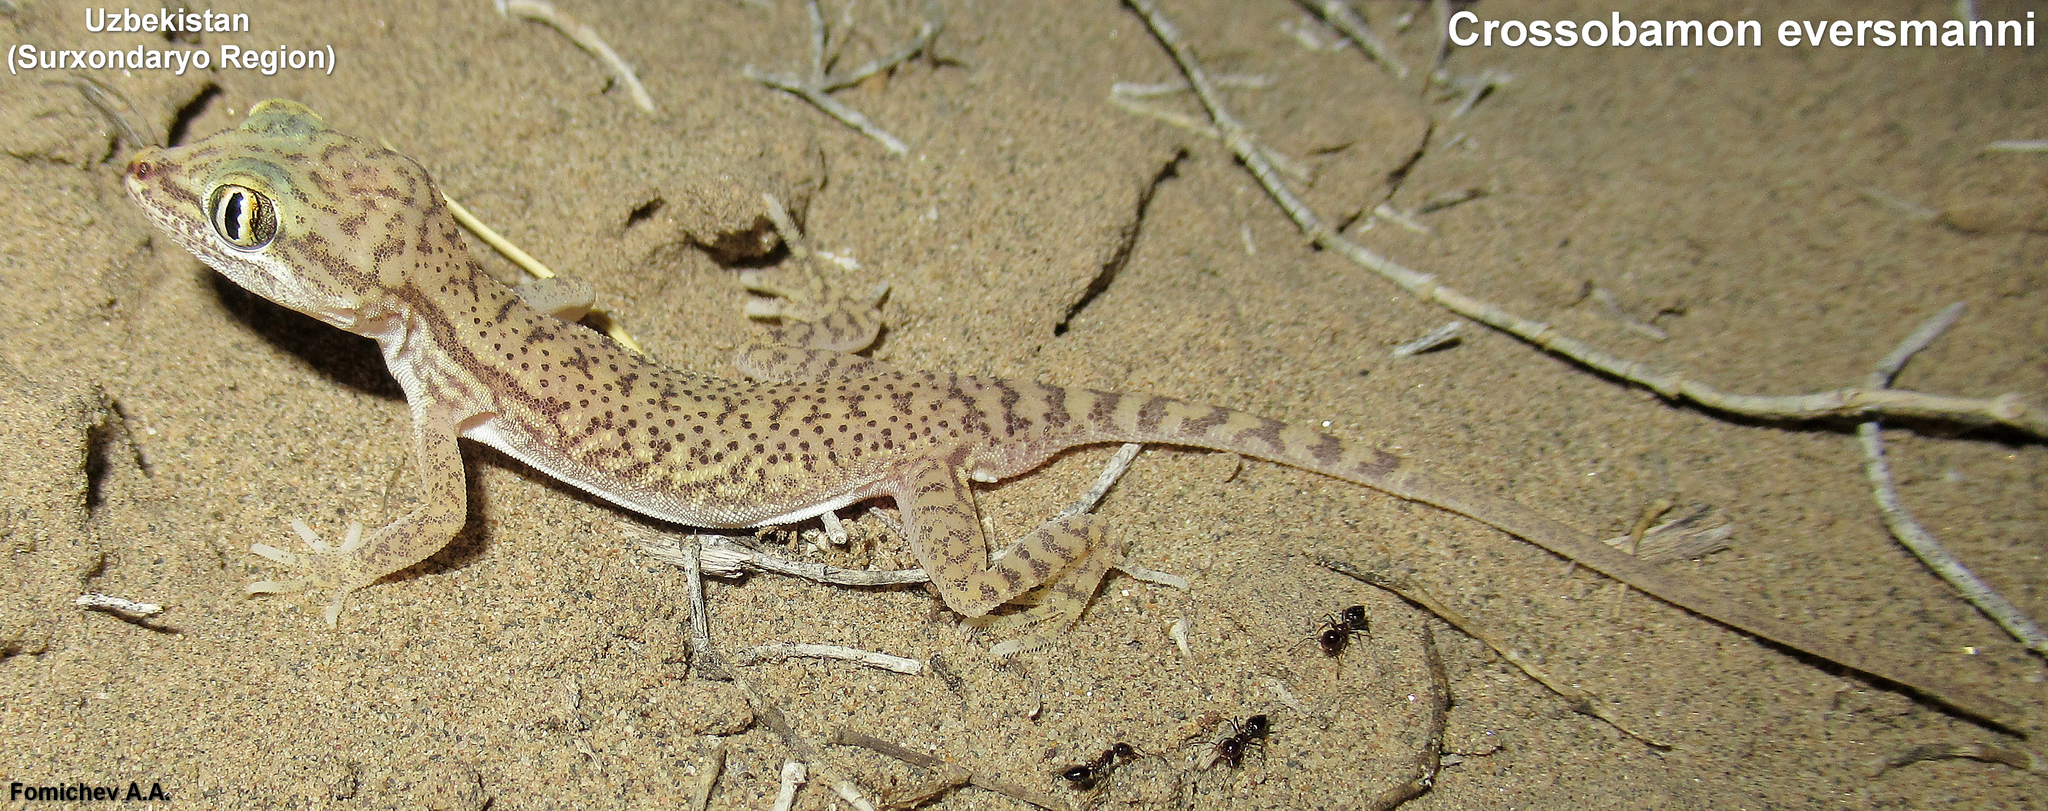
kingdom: Animalia
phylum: Chordata
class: Squamata
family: Gekkonidae
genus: Crossobamon
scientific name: Crossobamon eversmanni
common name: Comb-toed gecko
